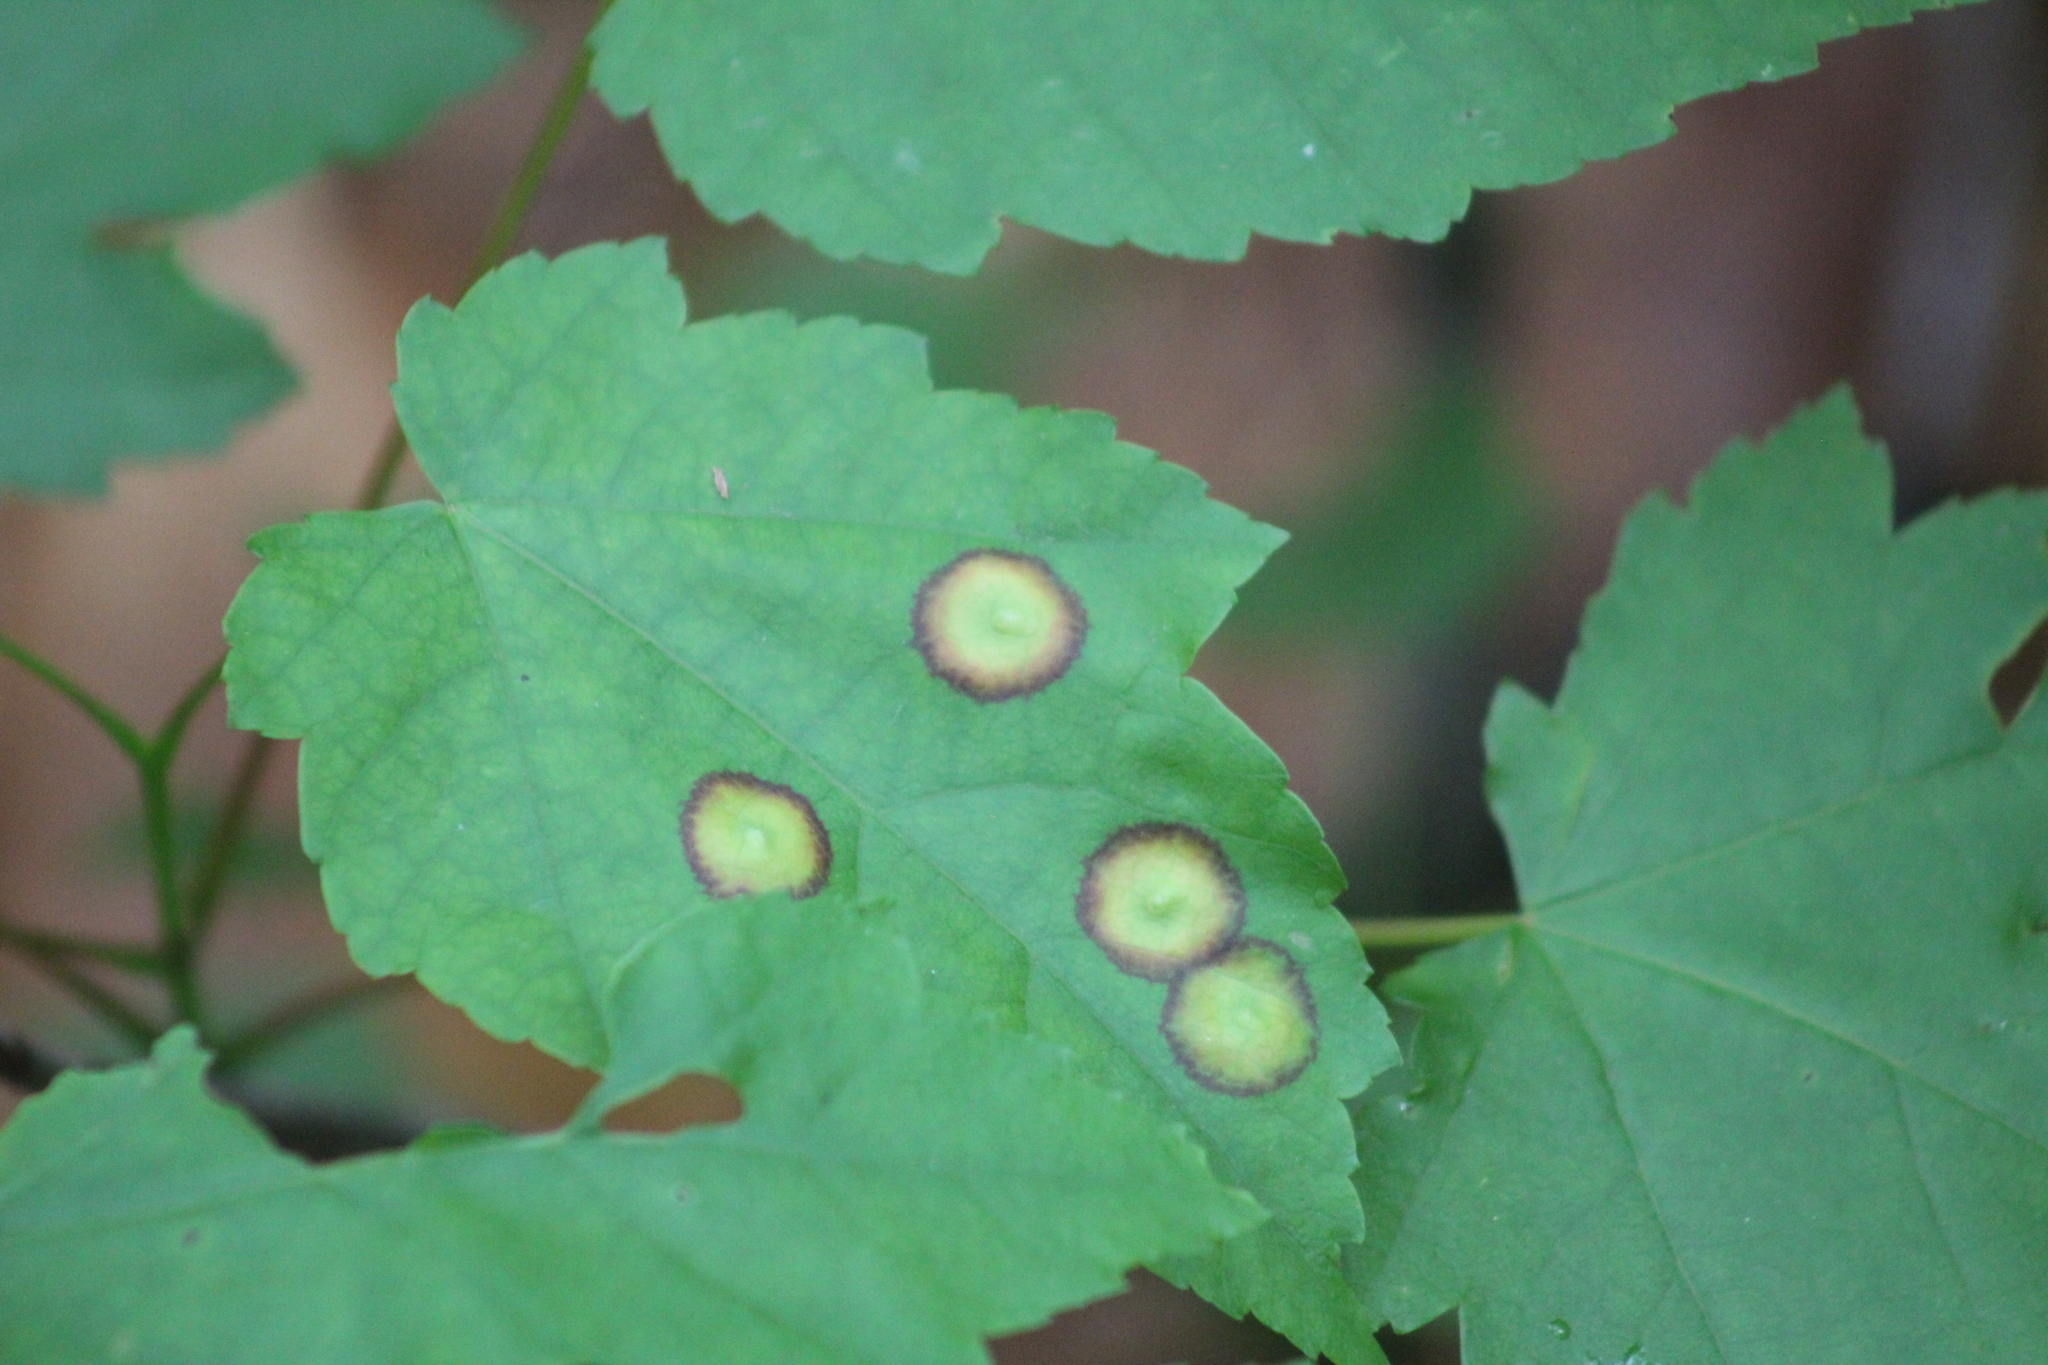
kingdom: Animalia
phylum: Arthropoda
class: Insecta
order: Diptera
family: Cecidomyiidae
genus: Acericecis
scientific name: Acericecis ocellaris
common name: Ocellate gall midge
